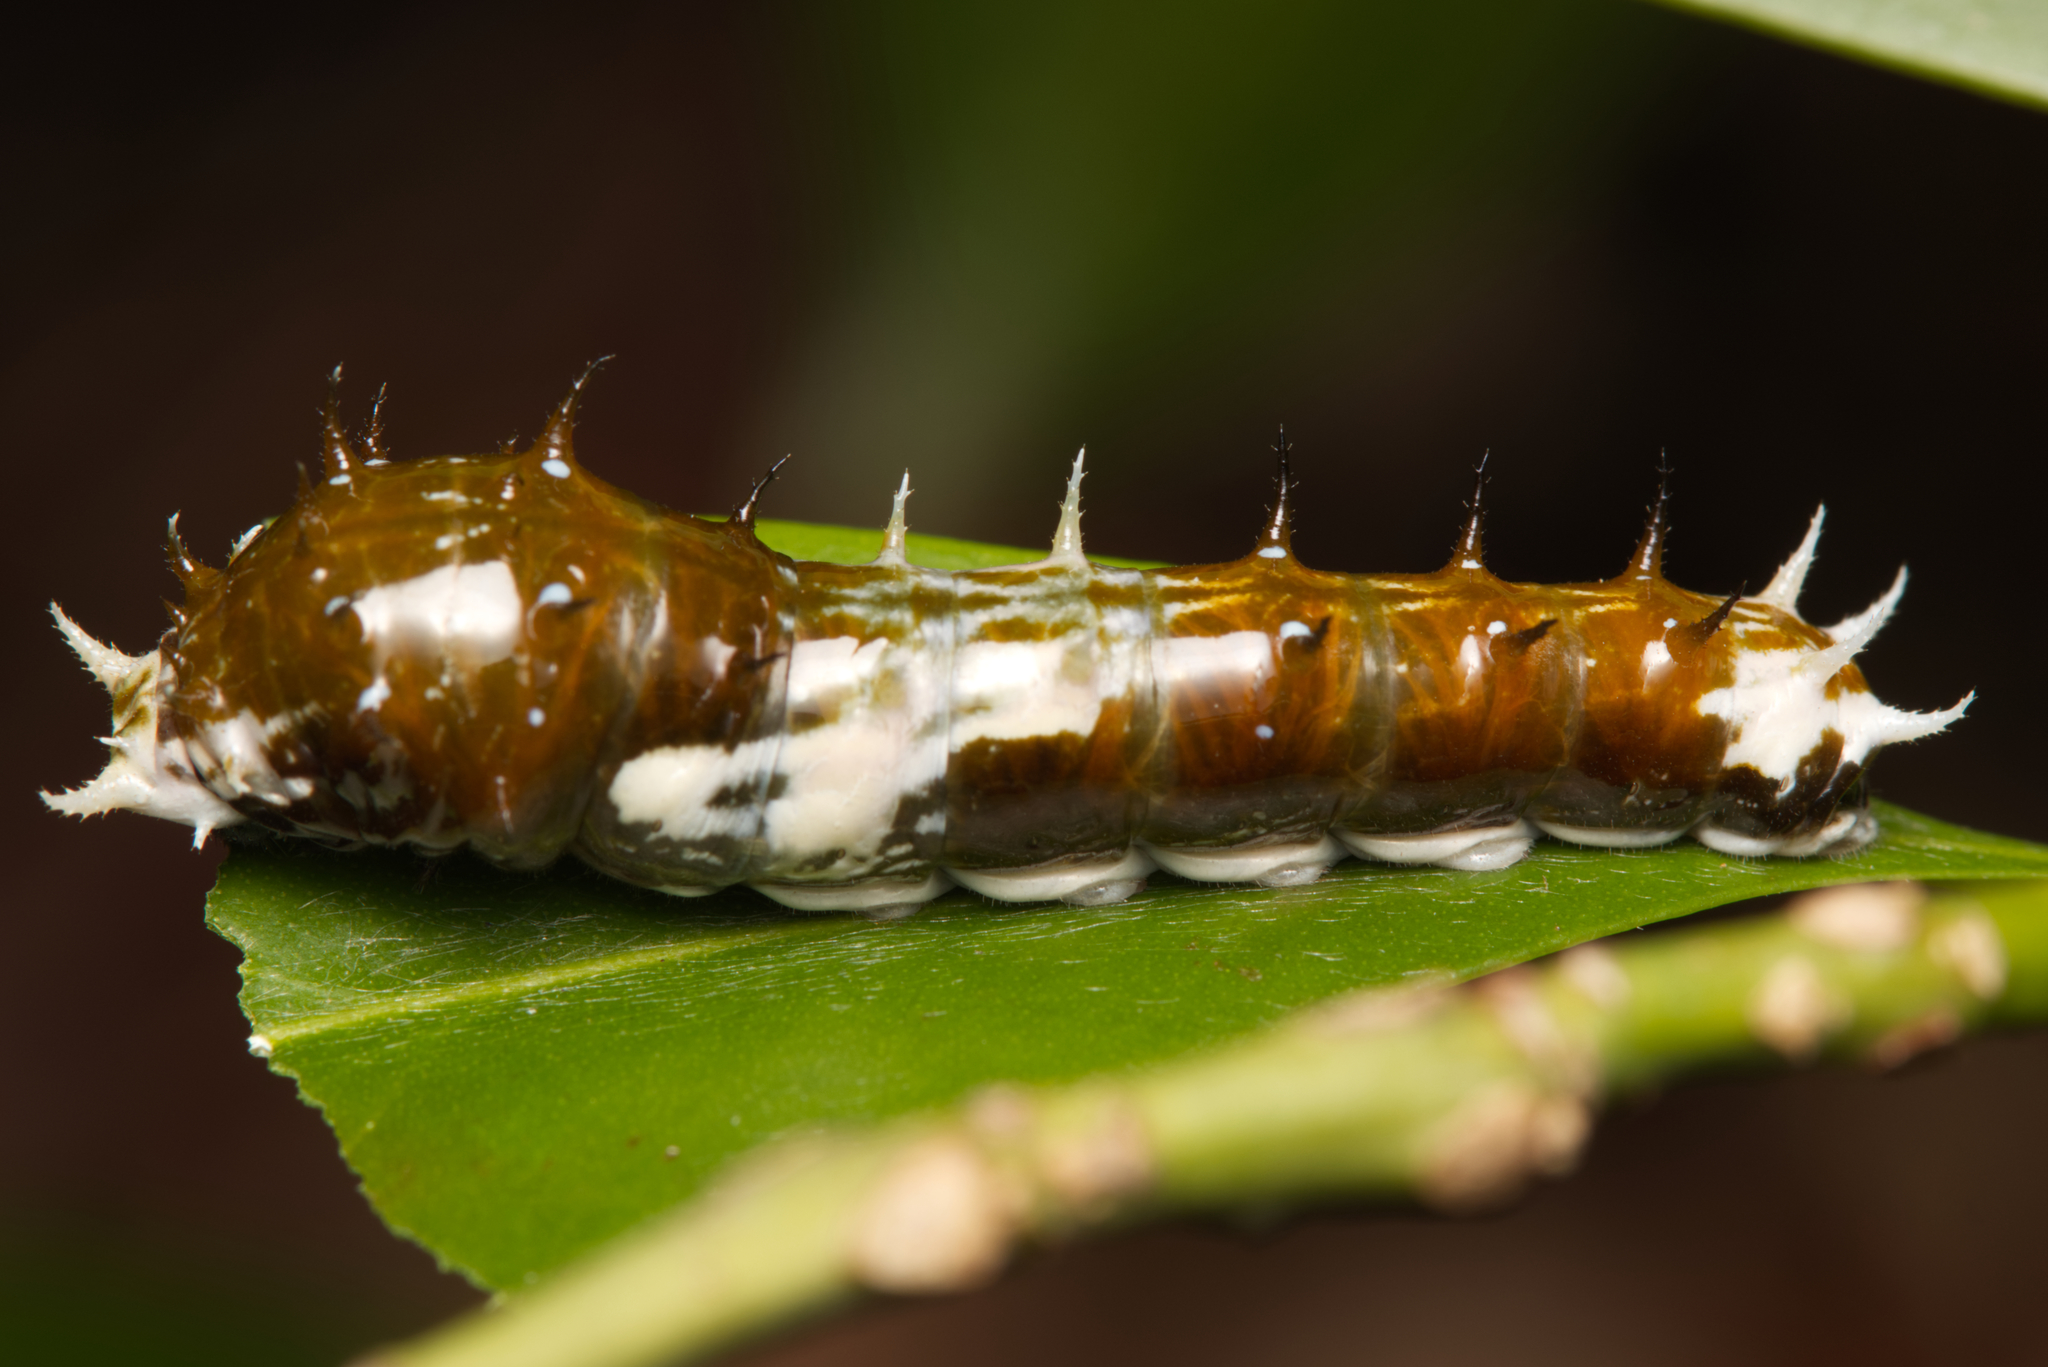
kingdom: Animalia
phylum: Arthropoda
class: Insecta
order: Lepidoptera
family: Papilionidae
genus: Papilio
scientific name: Papilio aegeus
